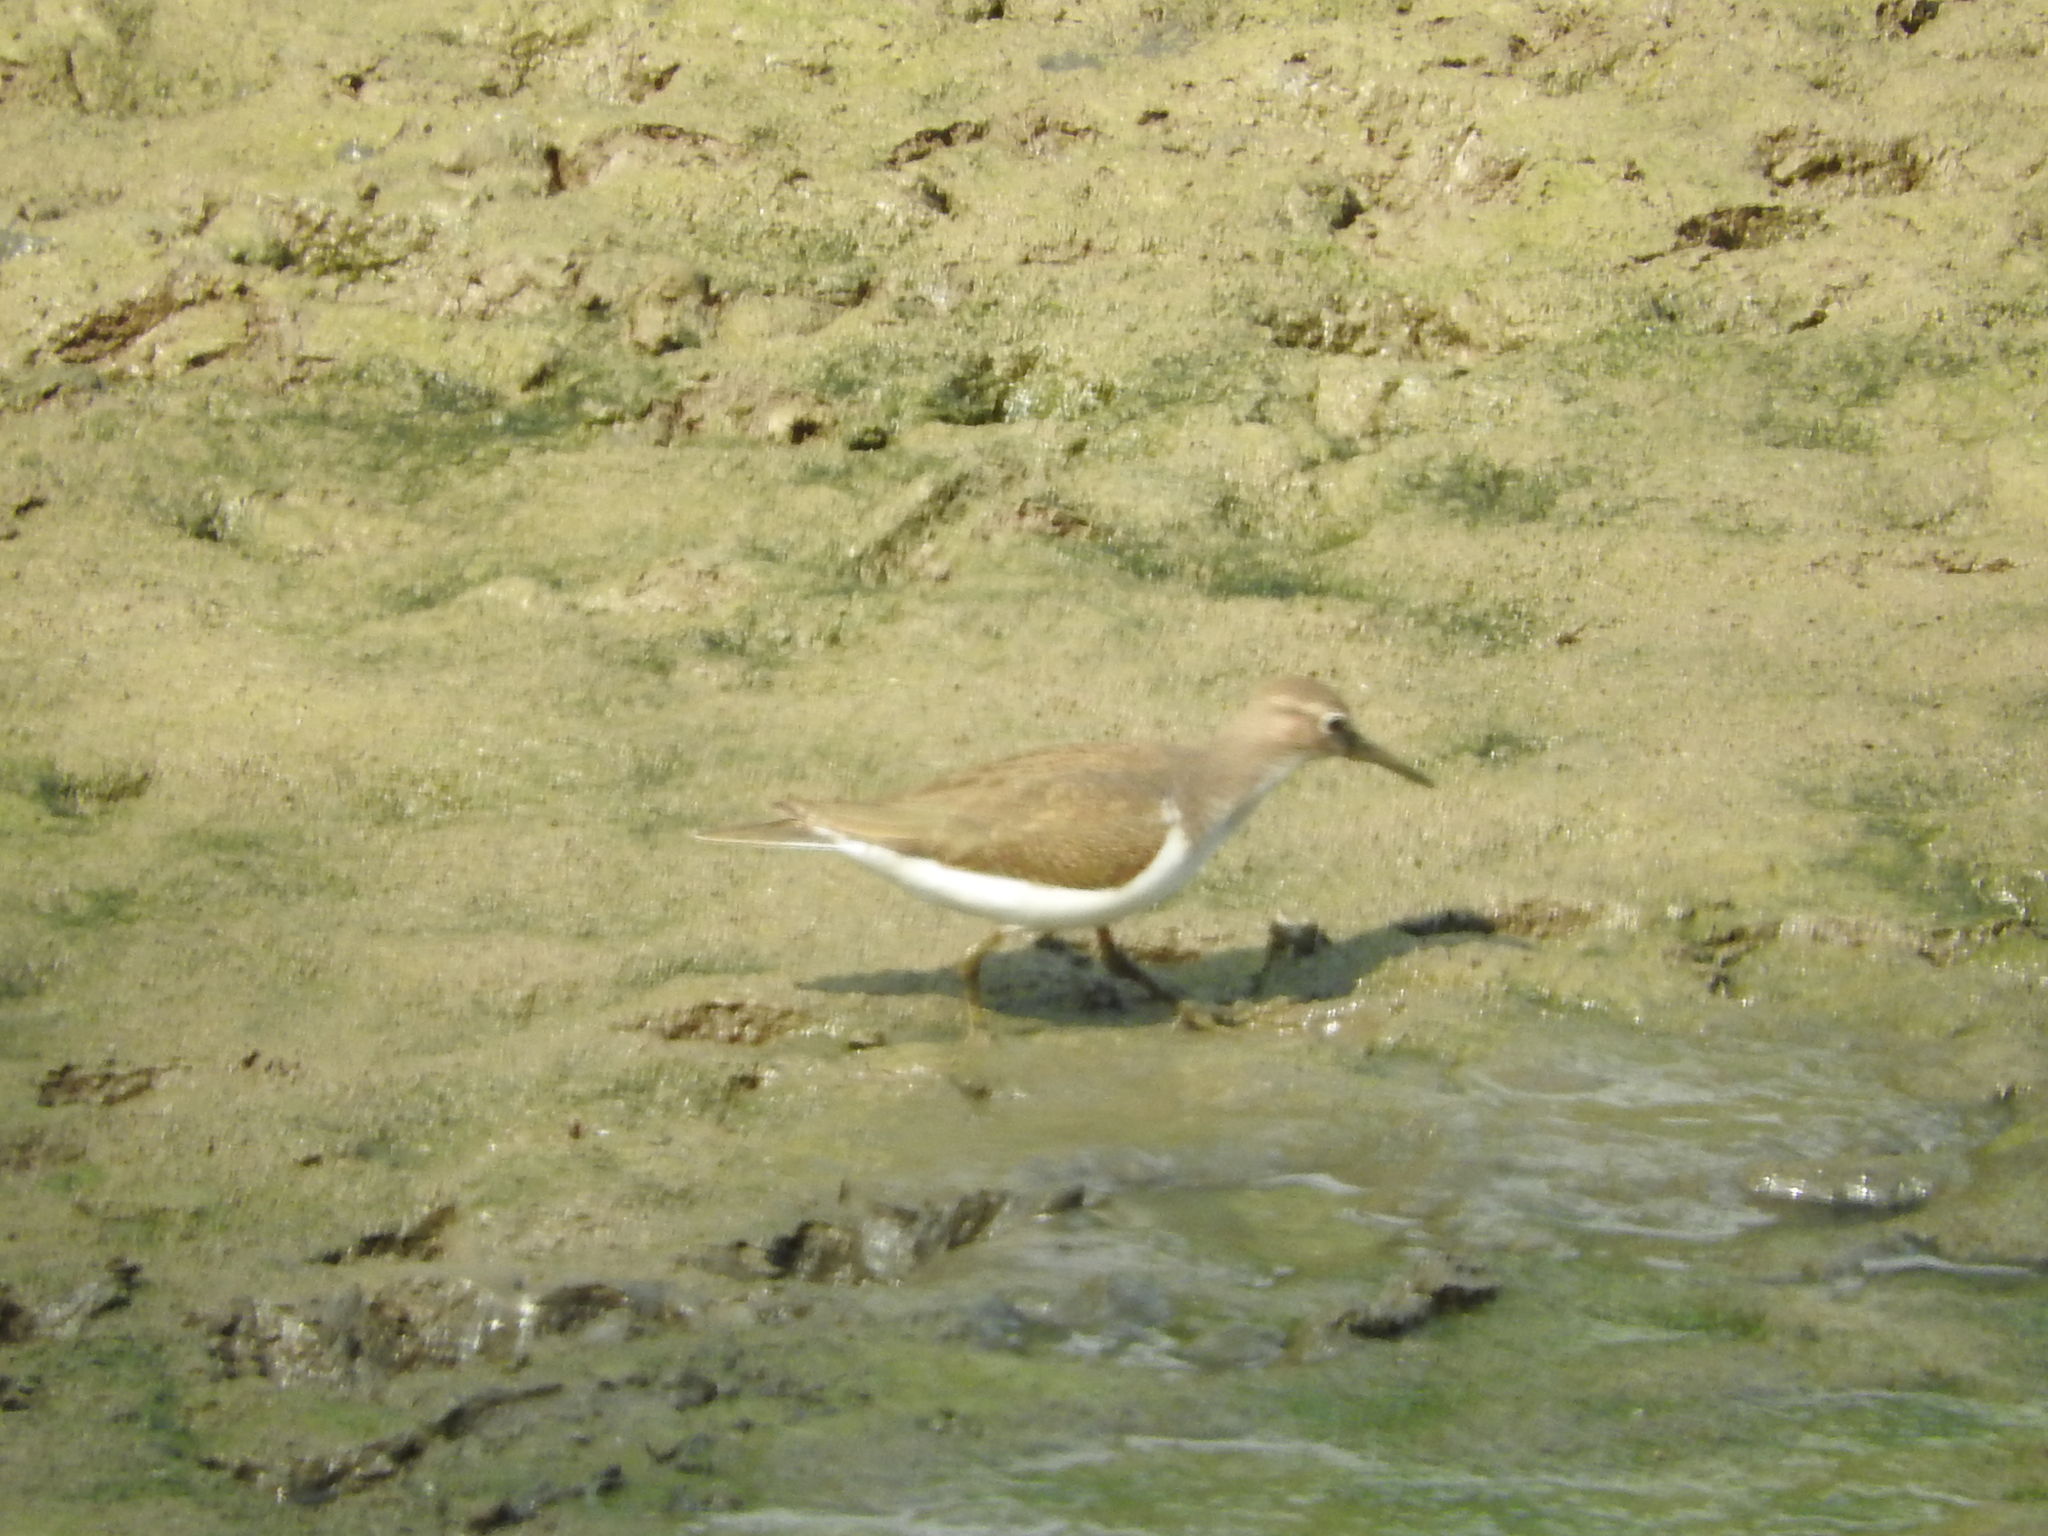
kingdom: Animalia
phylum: Chordata
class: Aves
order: Charadriiformes
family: Scolopacidae
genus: Actitis
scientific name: Actitis hypoleucos
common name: Common sandpiper
